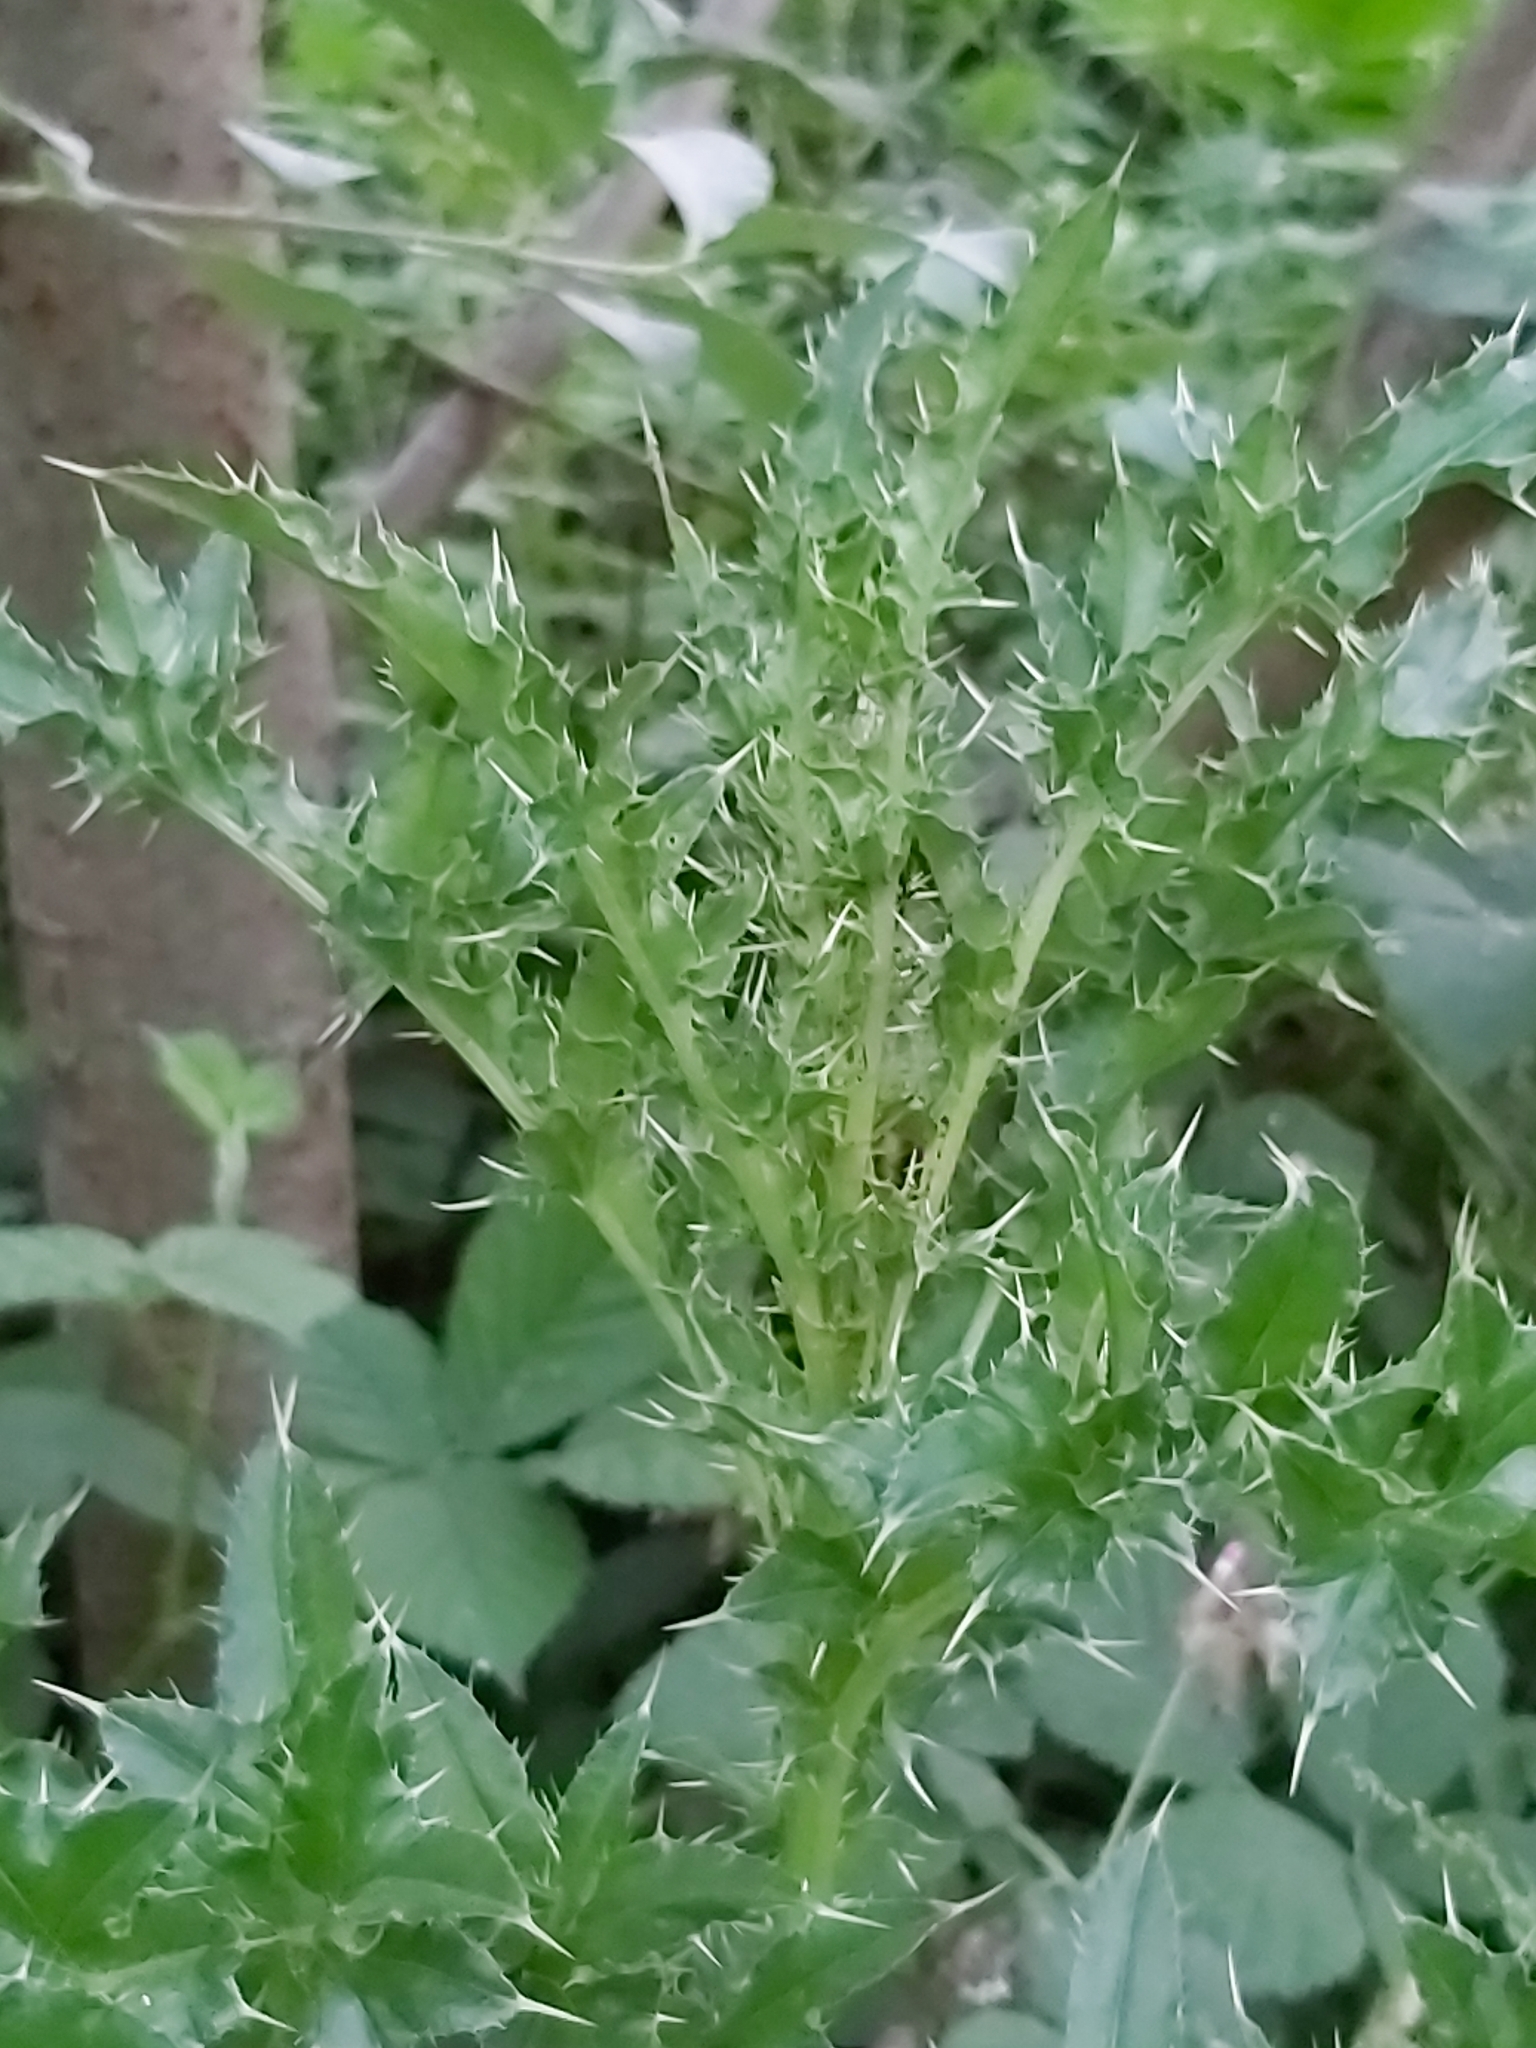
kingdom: Plantae
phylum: Tracheophyta
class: Magnoliopsida
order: Asterales
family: Asteraceae
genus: Cirsium
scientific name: Cirsium arvense
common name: Creeping thistle
